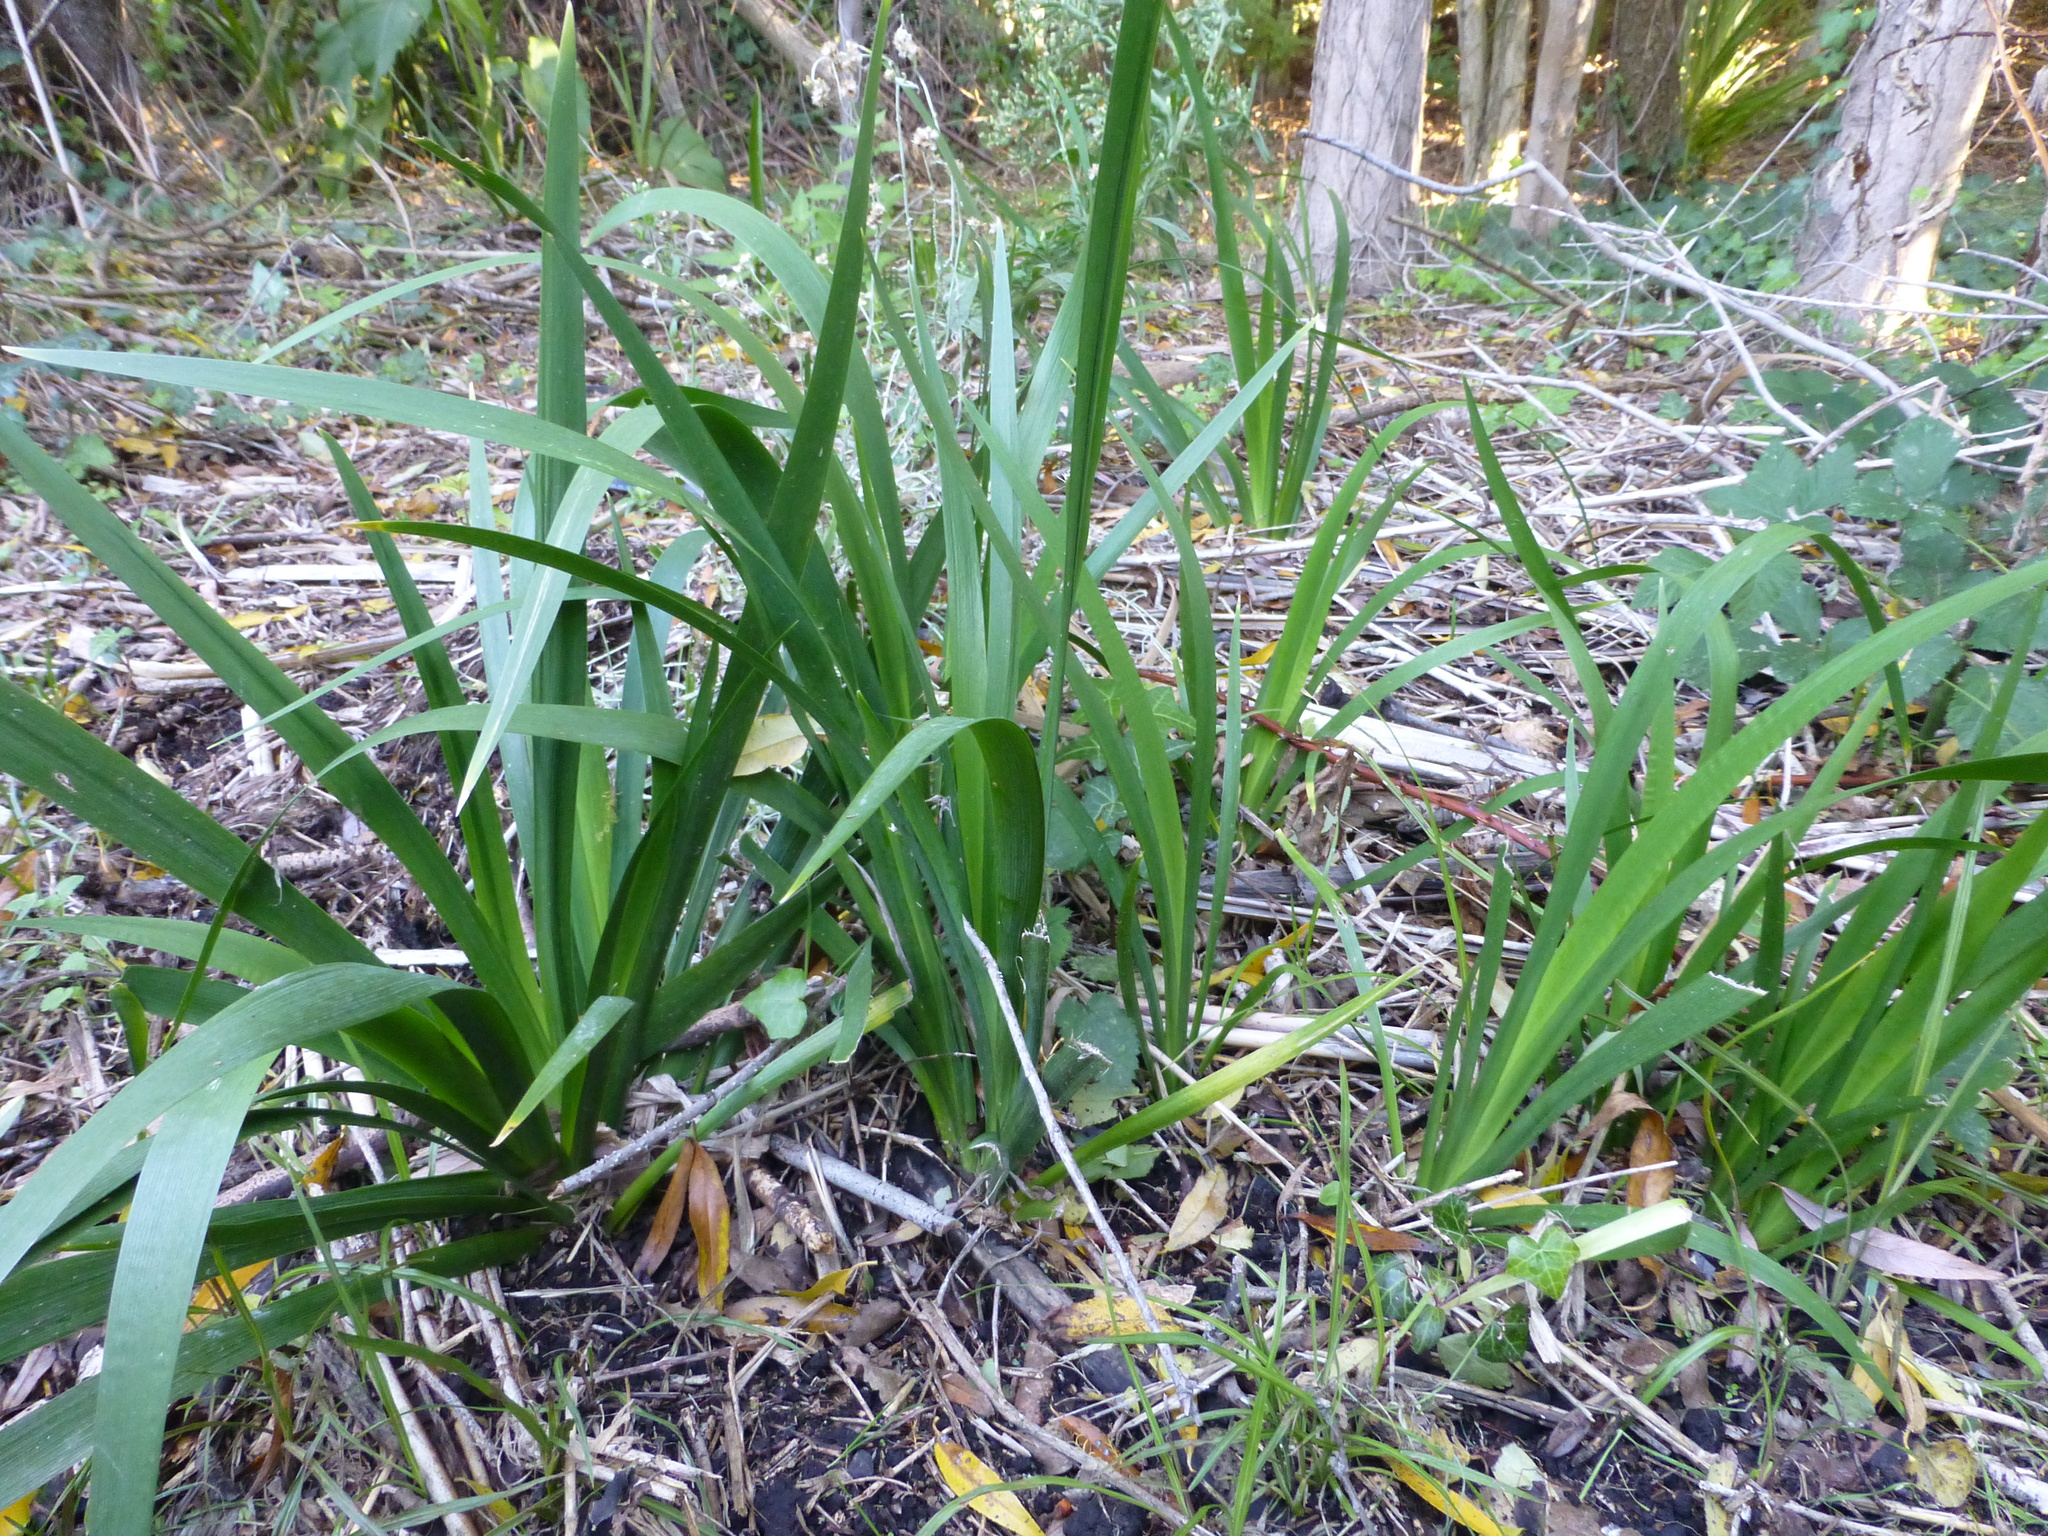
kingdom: Plantae
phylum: Tracheophyta
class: Liliopsida
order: Asparagales
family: Iridaceae
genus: Iris
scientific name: Iris pseudacorus
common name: Yellow flag
